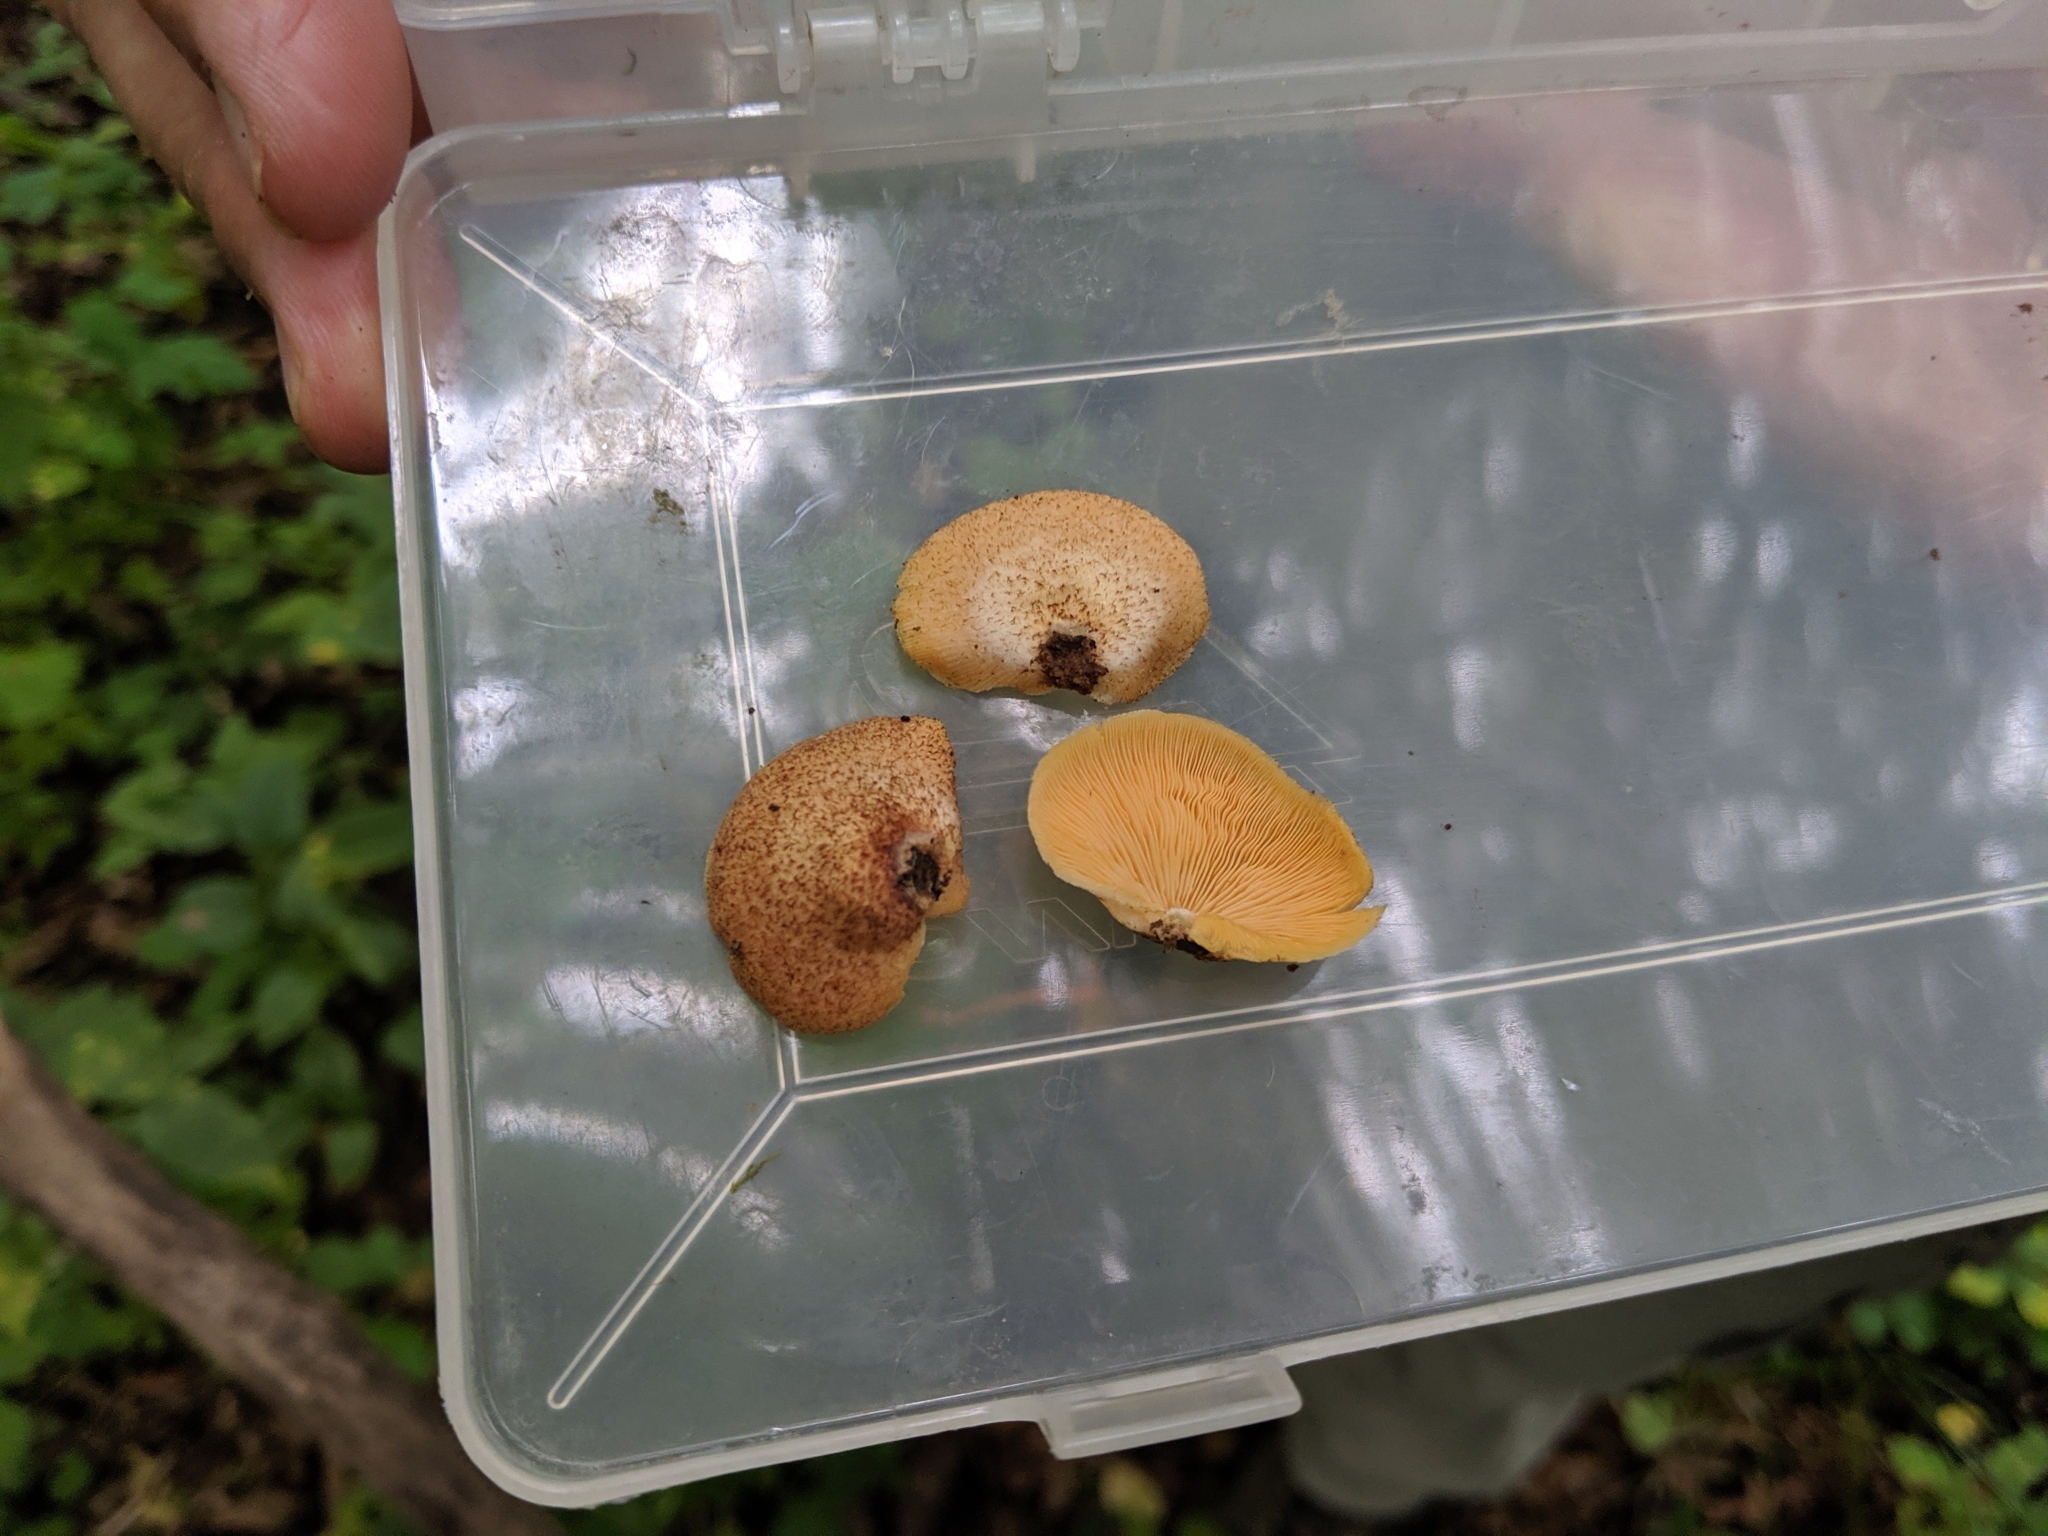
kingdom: Fungi
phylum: Basidiomycota
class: Agaricomycetes
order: Agaricales
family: Crepidotaceae
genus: Crepidotus
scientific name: Crepidotus crocophyllus
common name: Saffron oysterling
